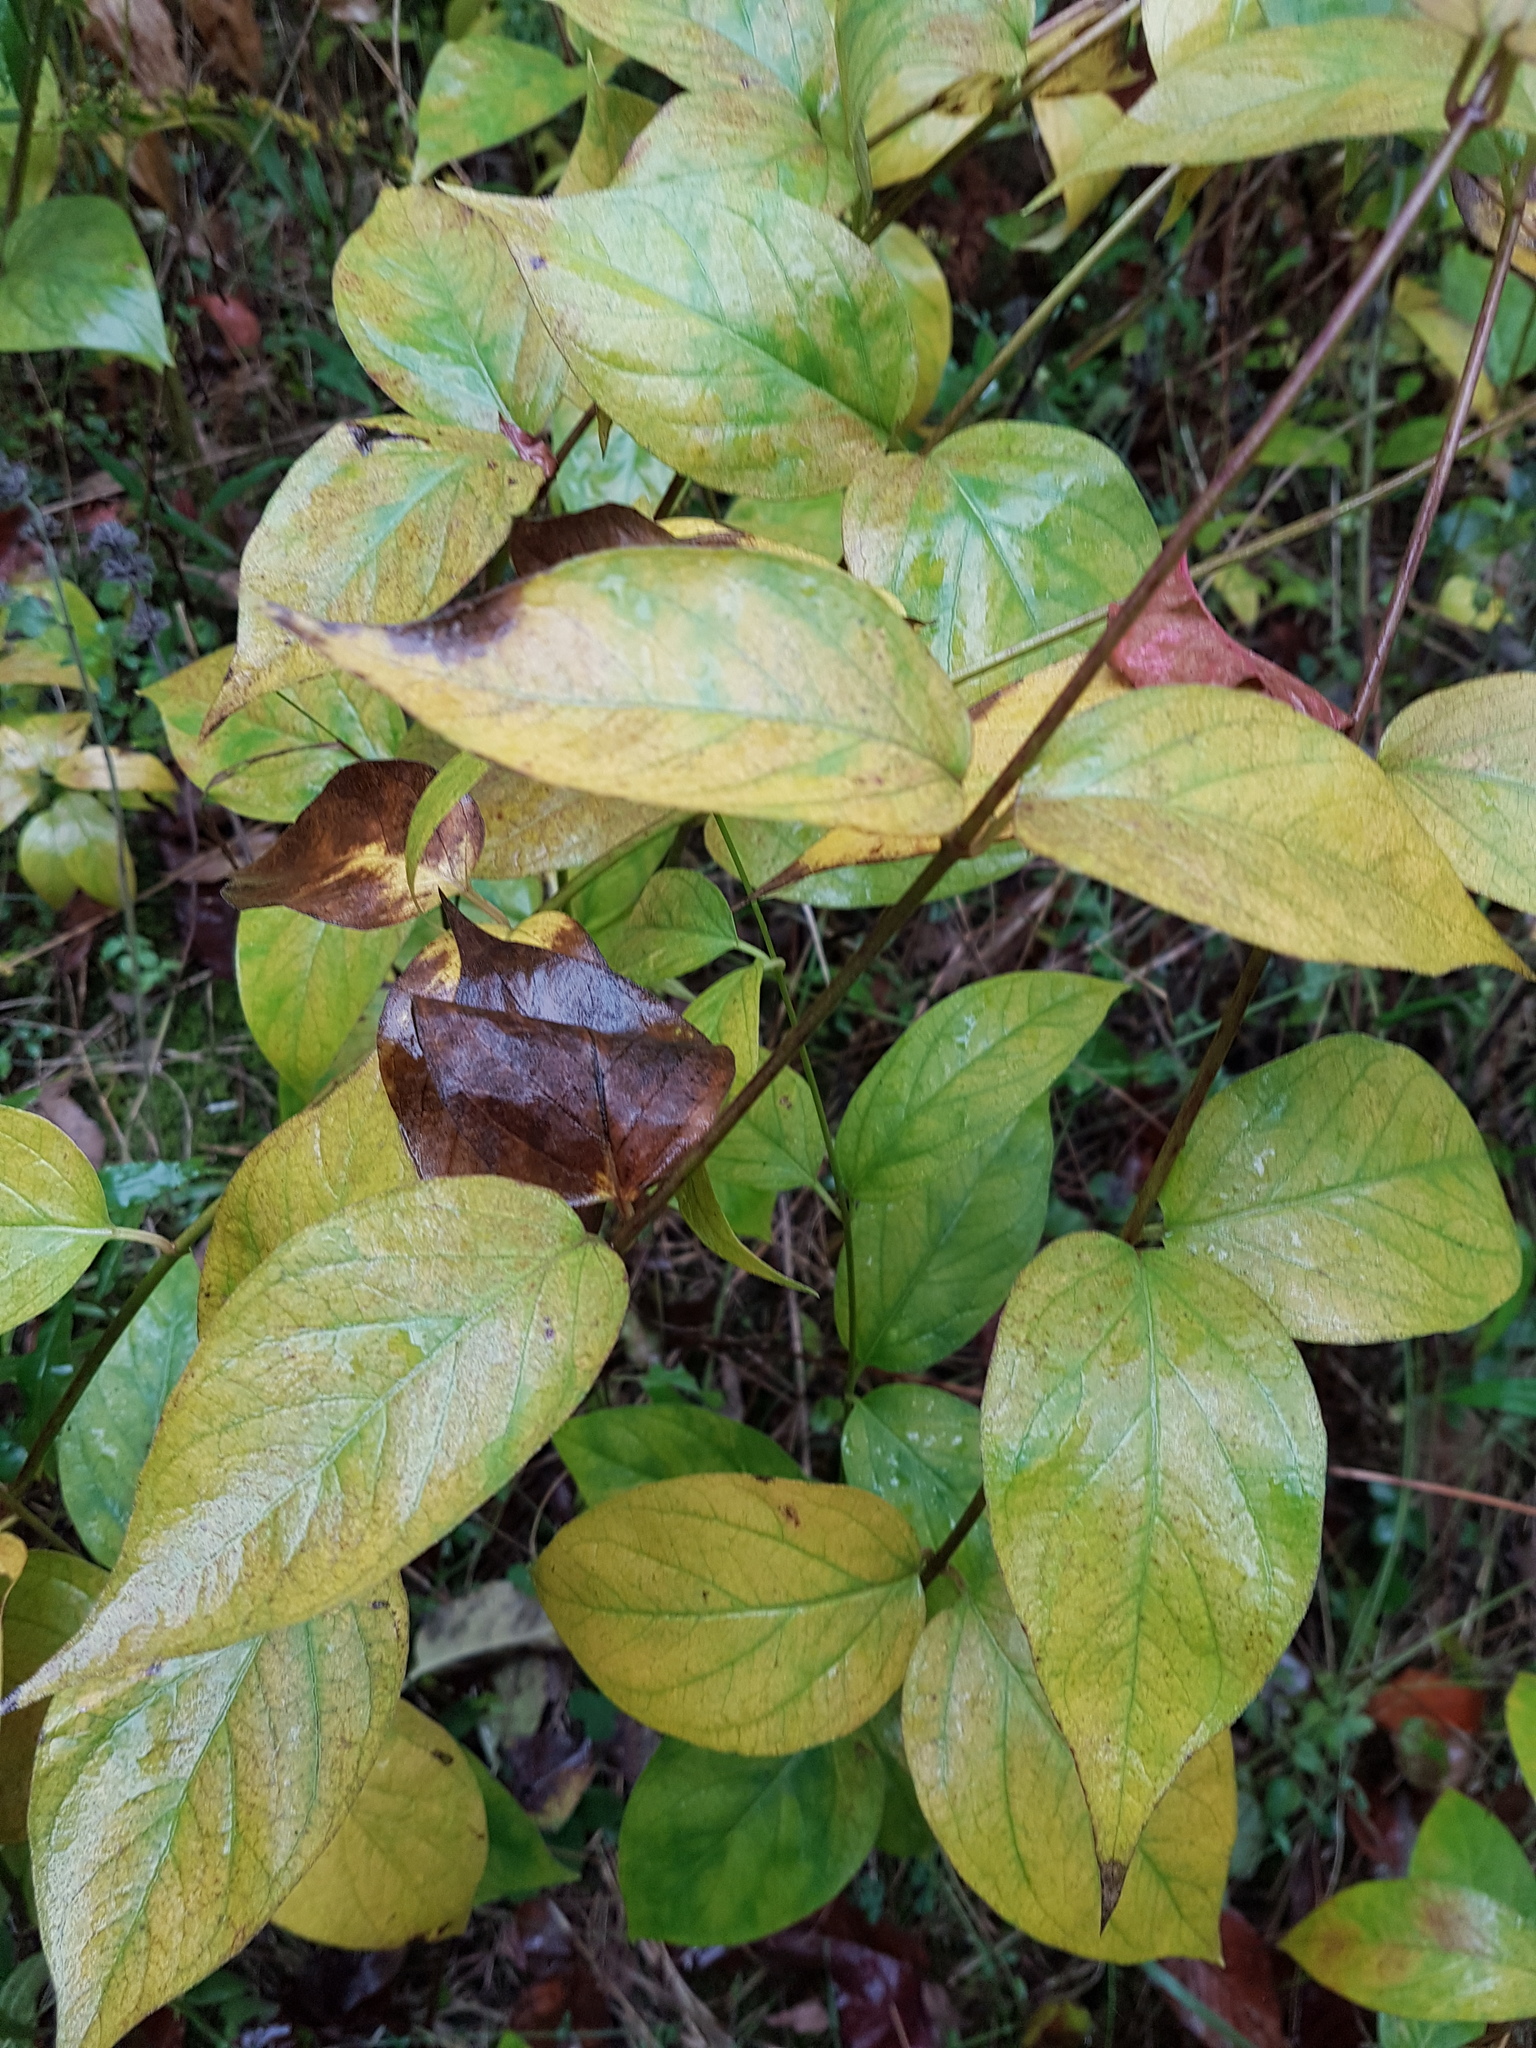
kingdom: Plantae
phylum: Tracheophyta
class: Magnoliopsida
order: Gentianales
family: Apocynaceae
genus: Vincetoxicum
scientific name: Vincetoxicum rossicum
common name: Dog-strangling vine
